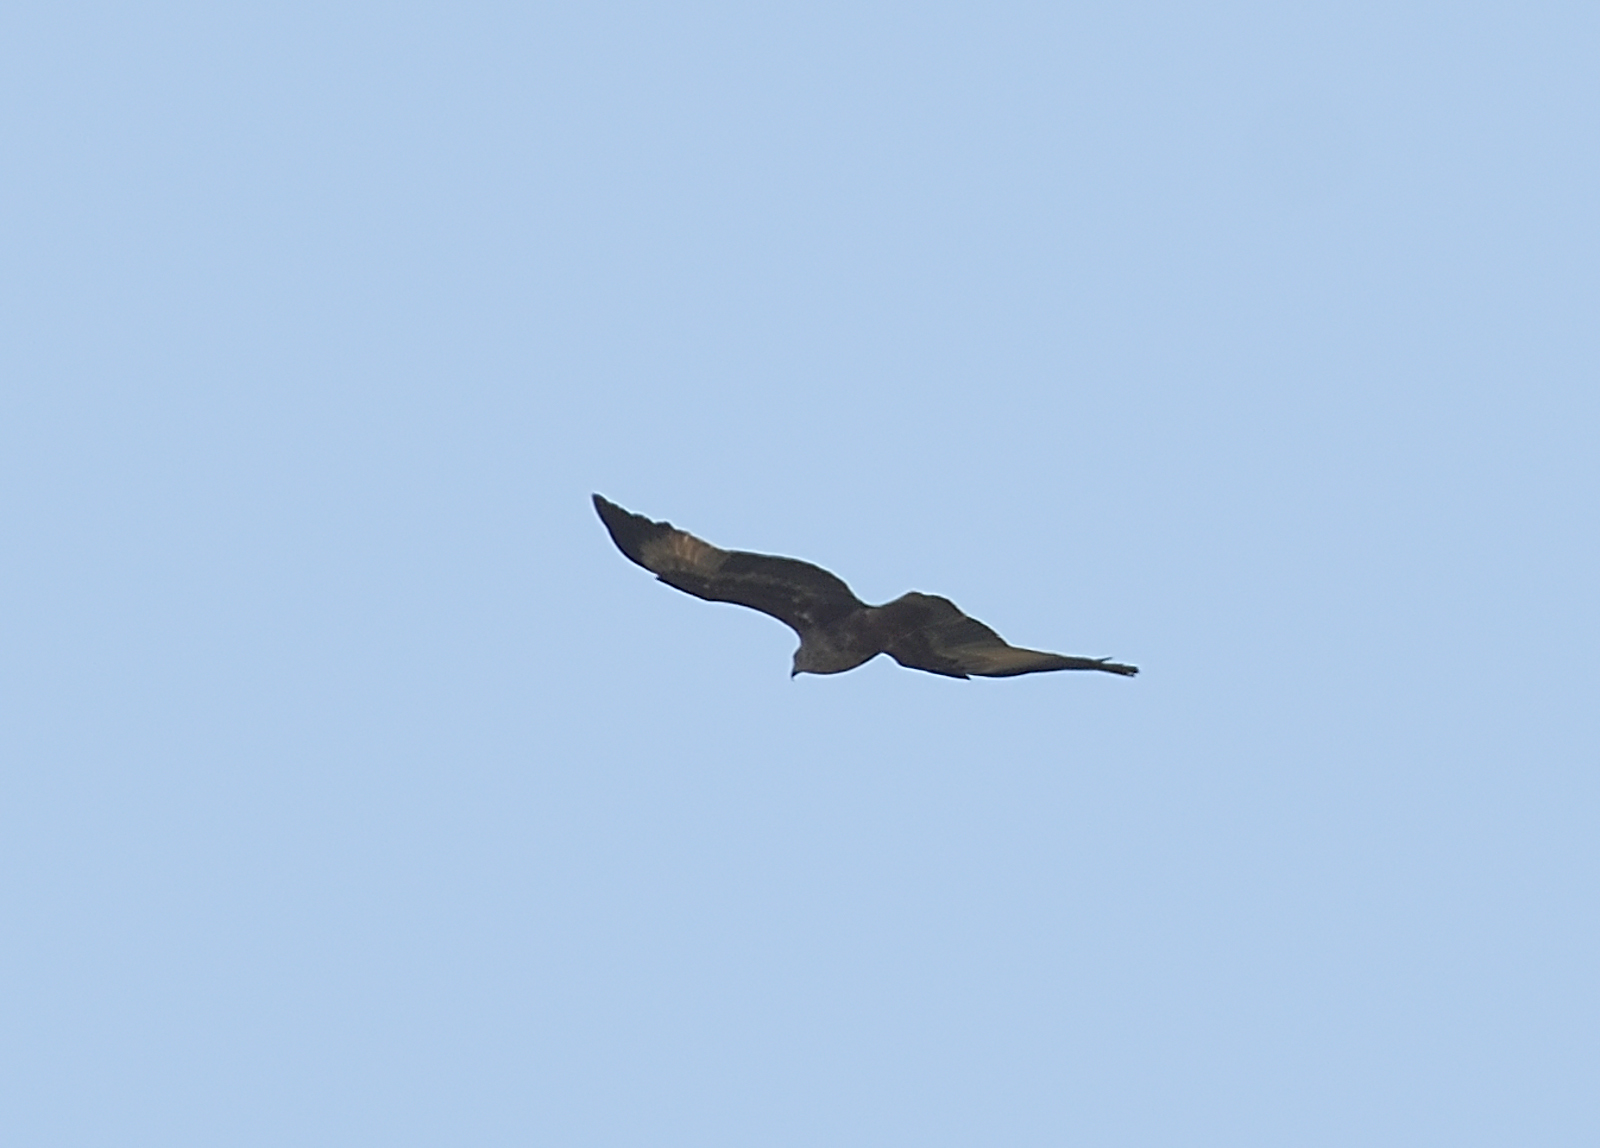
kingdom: Animalia
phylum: Chordata
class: Aves
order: Accipitriformes
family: Accipitridae
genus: Haliastur
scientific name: Haliastur indus
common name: Brahminy kite
